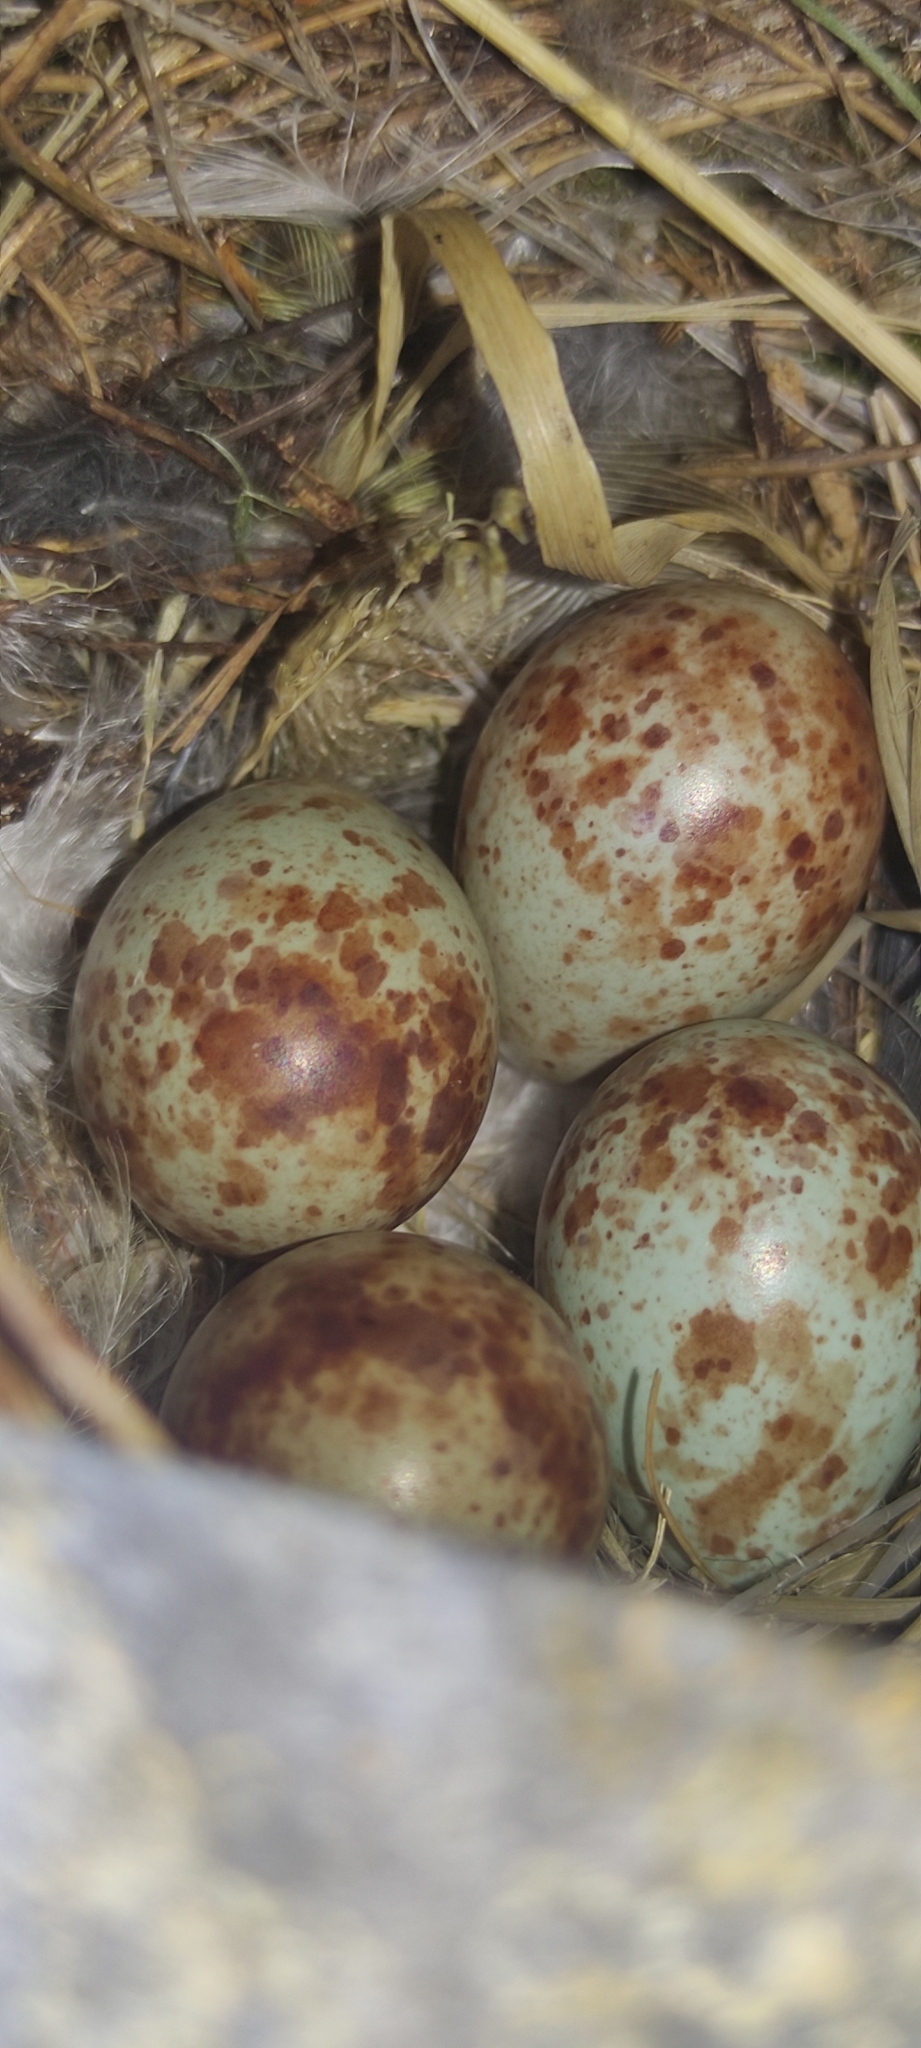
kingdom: Animalia
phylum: Chordata
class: Aves
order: Passeriformes
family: Muscicapidae
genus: Muscicapa
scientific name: Muscicapa striata
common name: Spotted flycatcher
